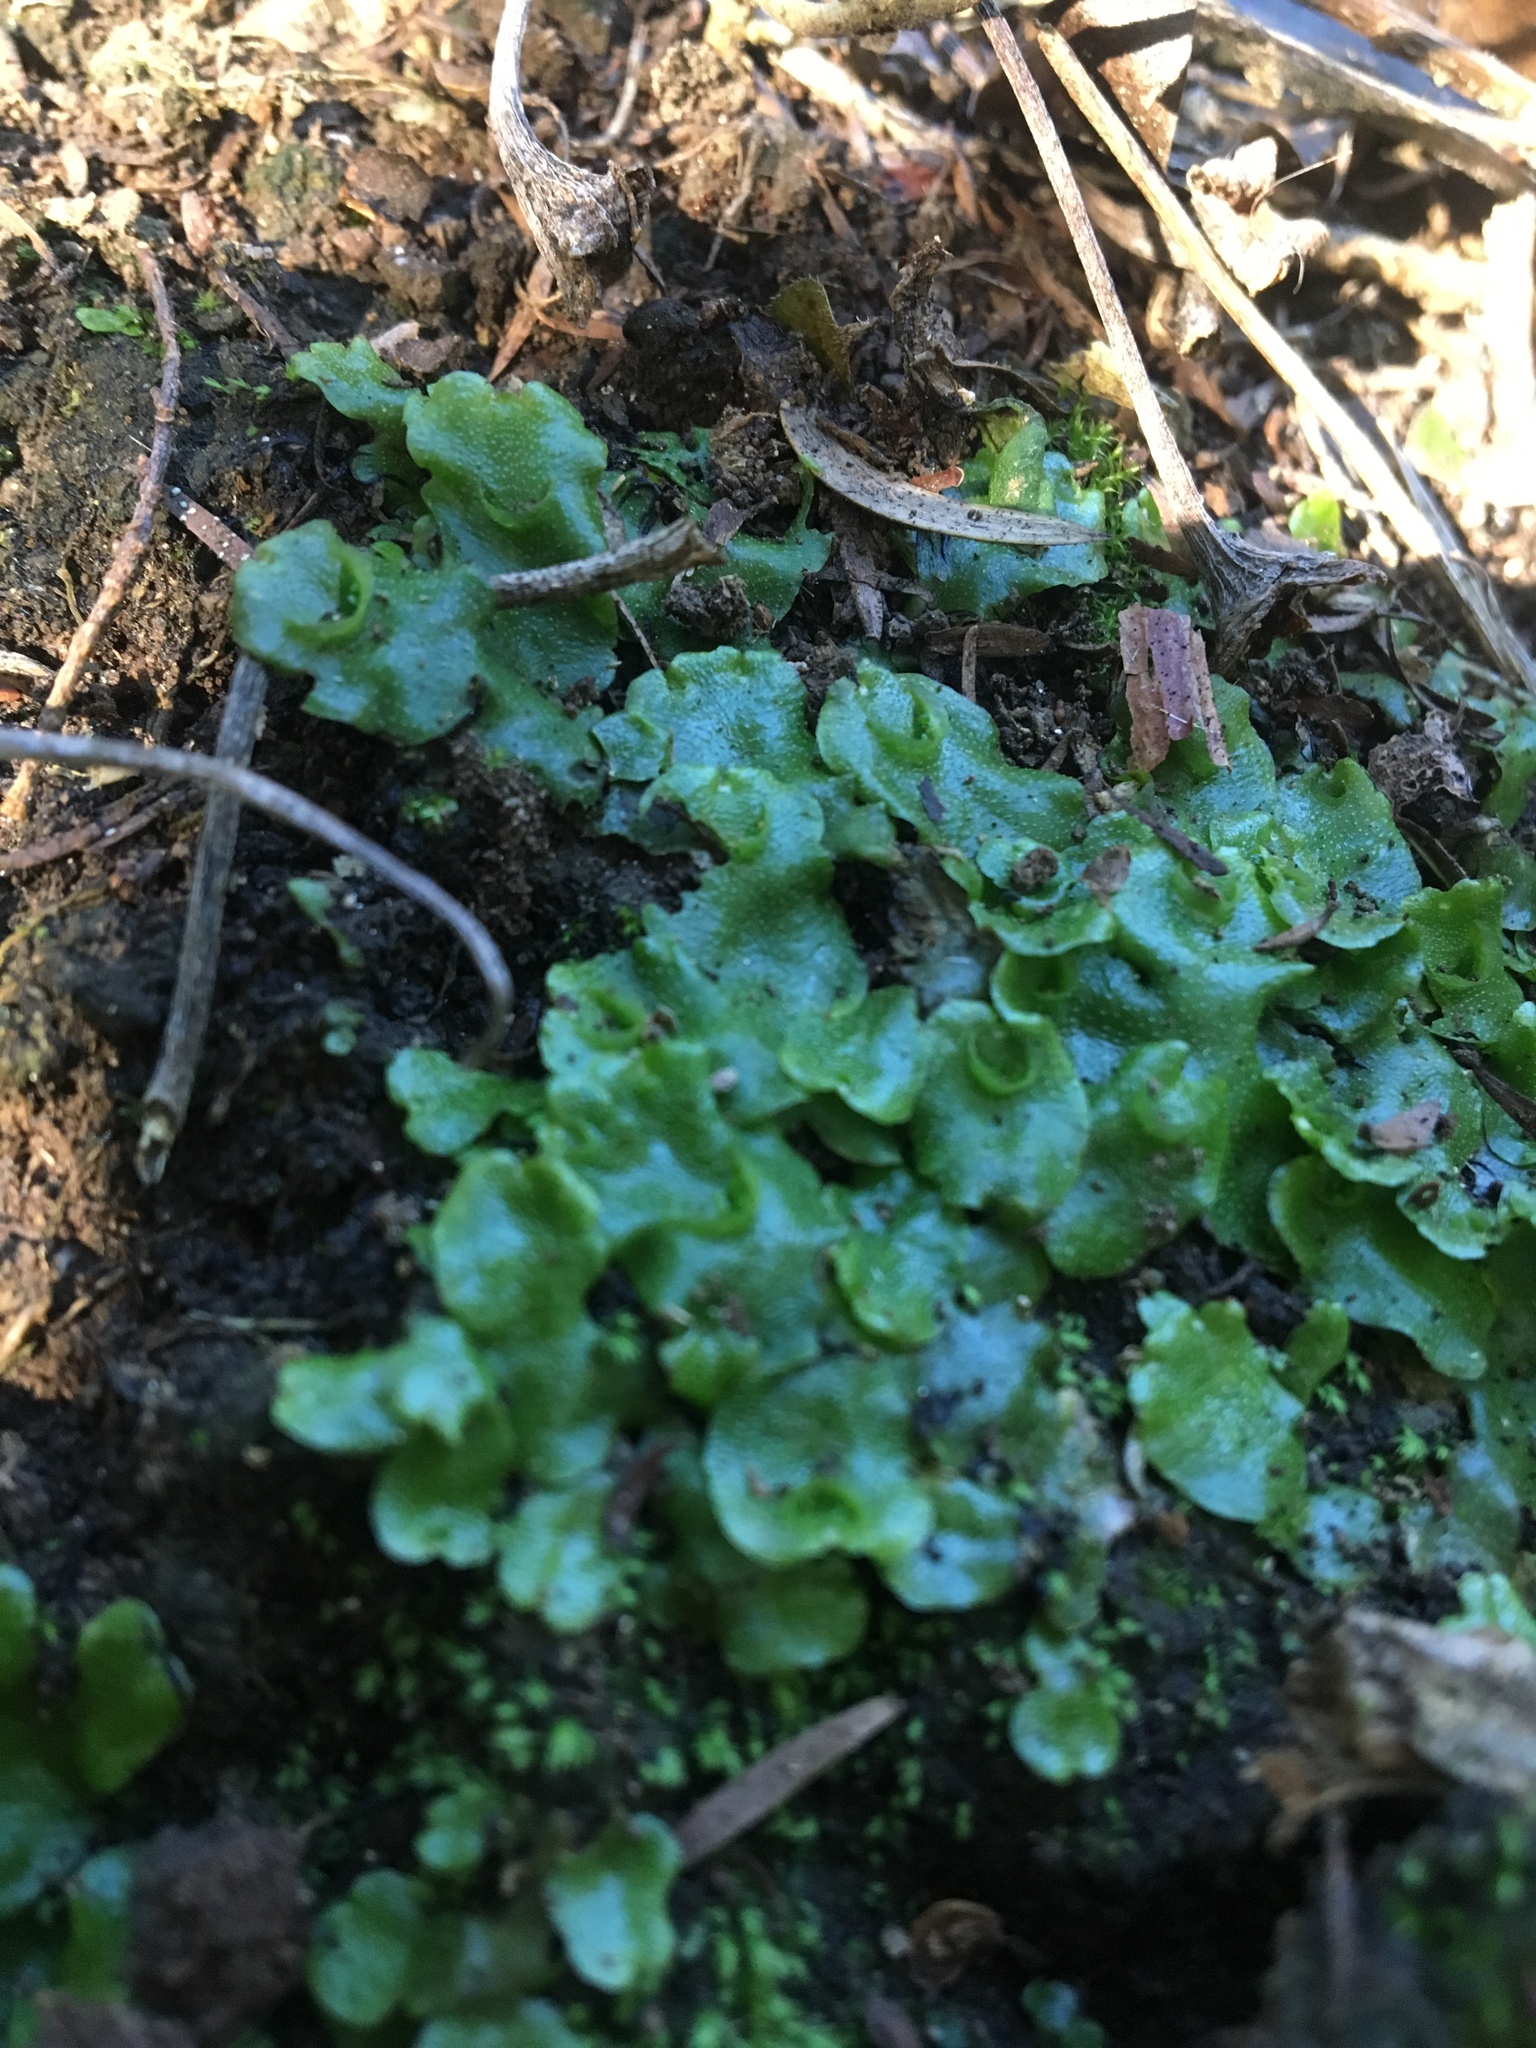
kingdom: Plantae
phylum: Marchantiophyta
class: Marchantiopsida
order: Lunulariales
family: Lunulariaceae
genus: Lunularia
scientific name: Lunularia cruciata
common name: Crescent-cup liverwort
